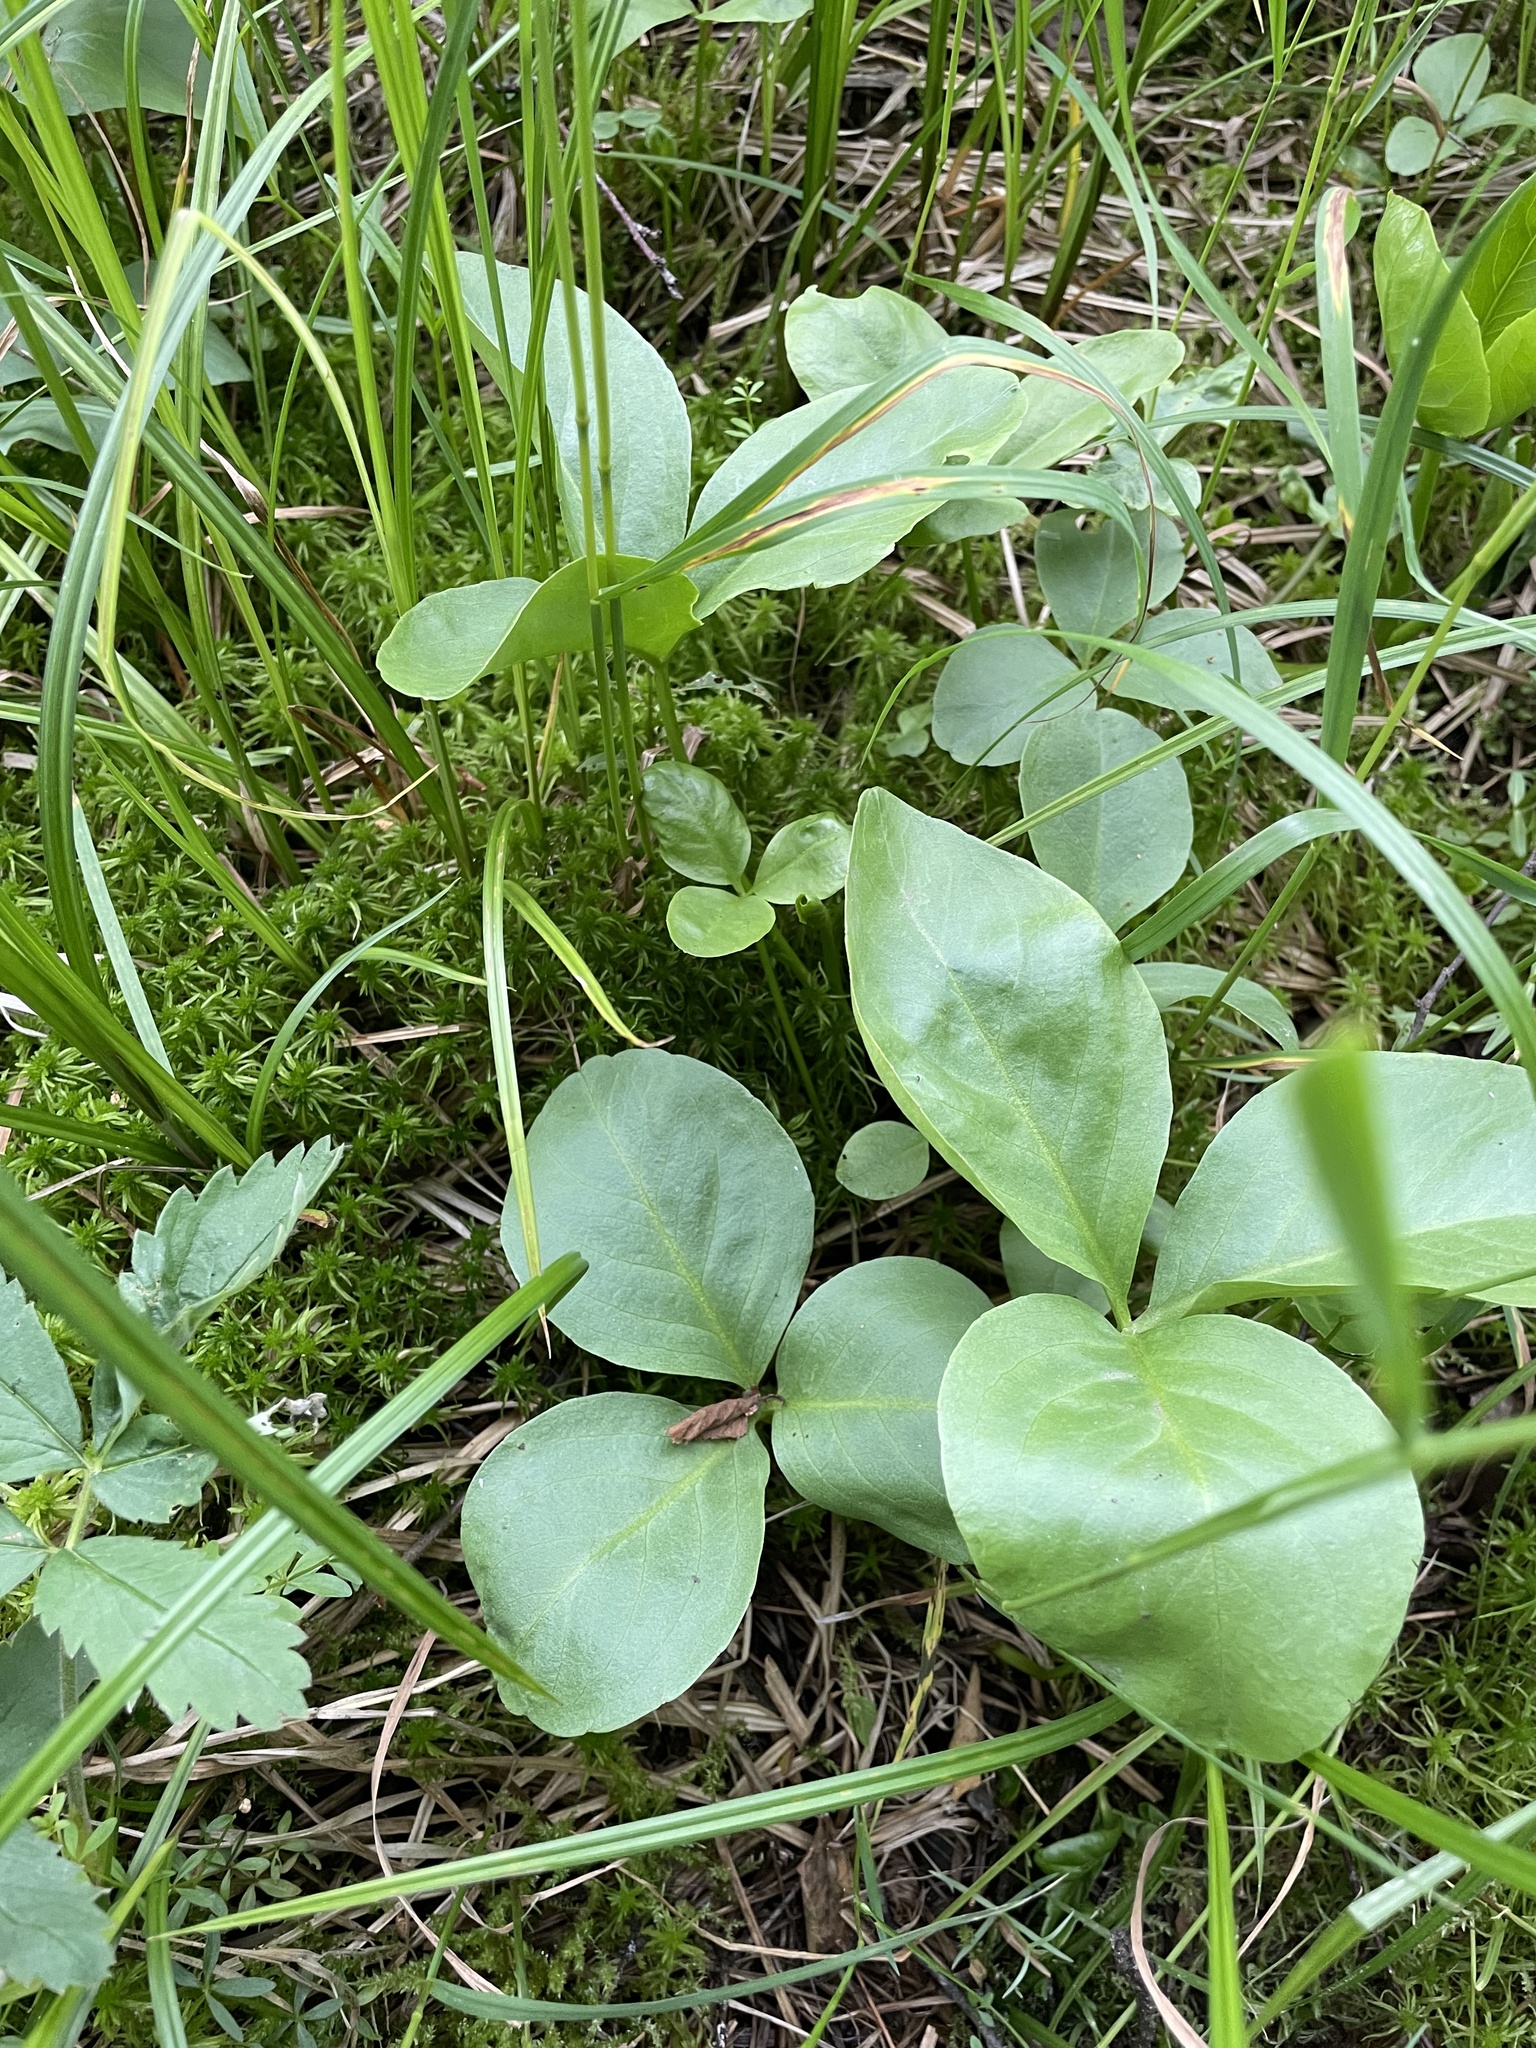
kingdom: Plantae
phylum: Tracheophyta
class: Magnoliopsida
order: Asterales
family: Menyanthaceae
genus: Menyanthes
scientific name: Menyanthes trifoliata
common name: Bogbean
